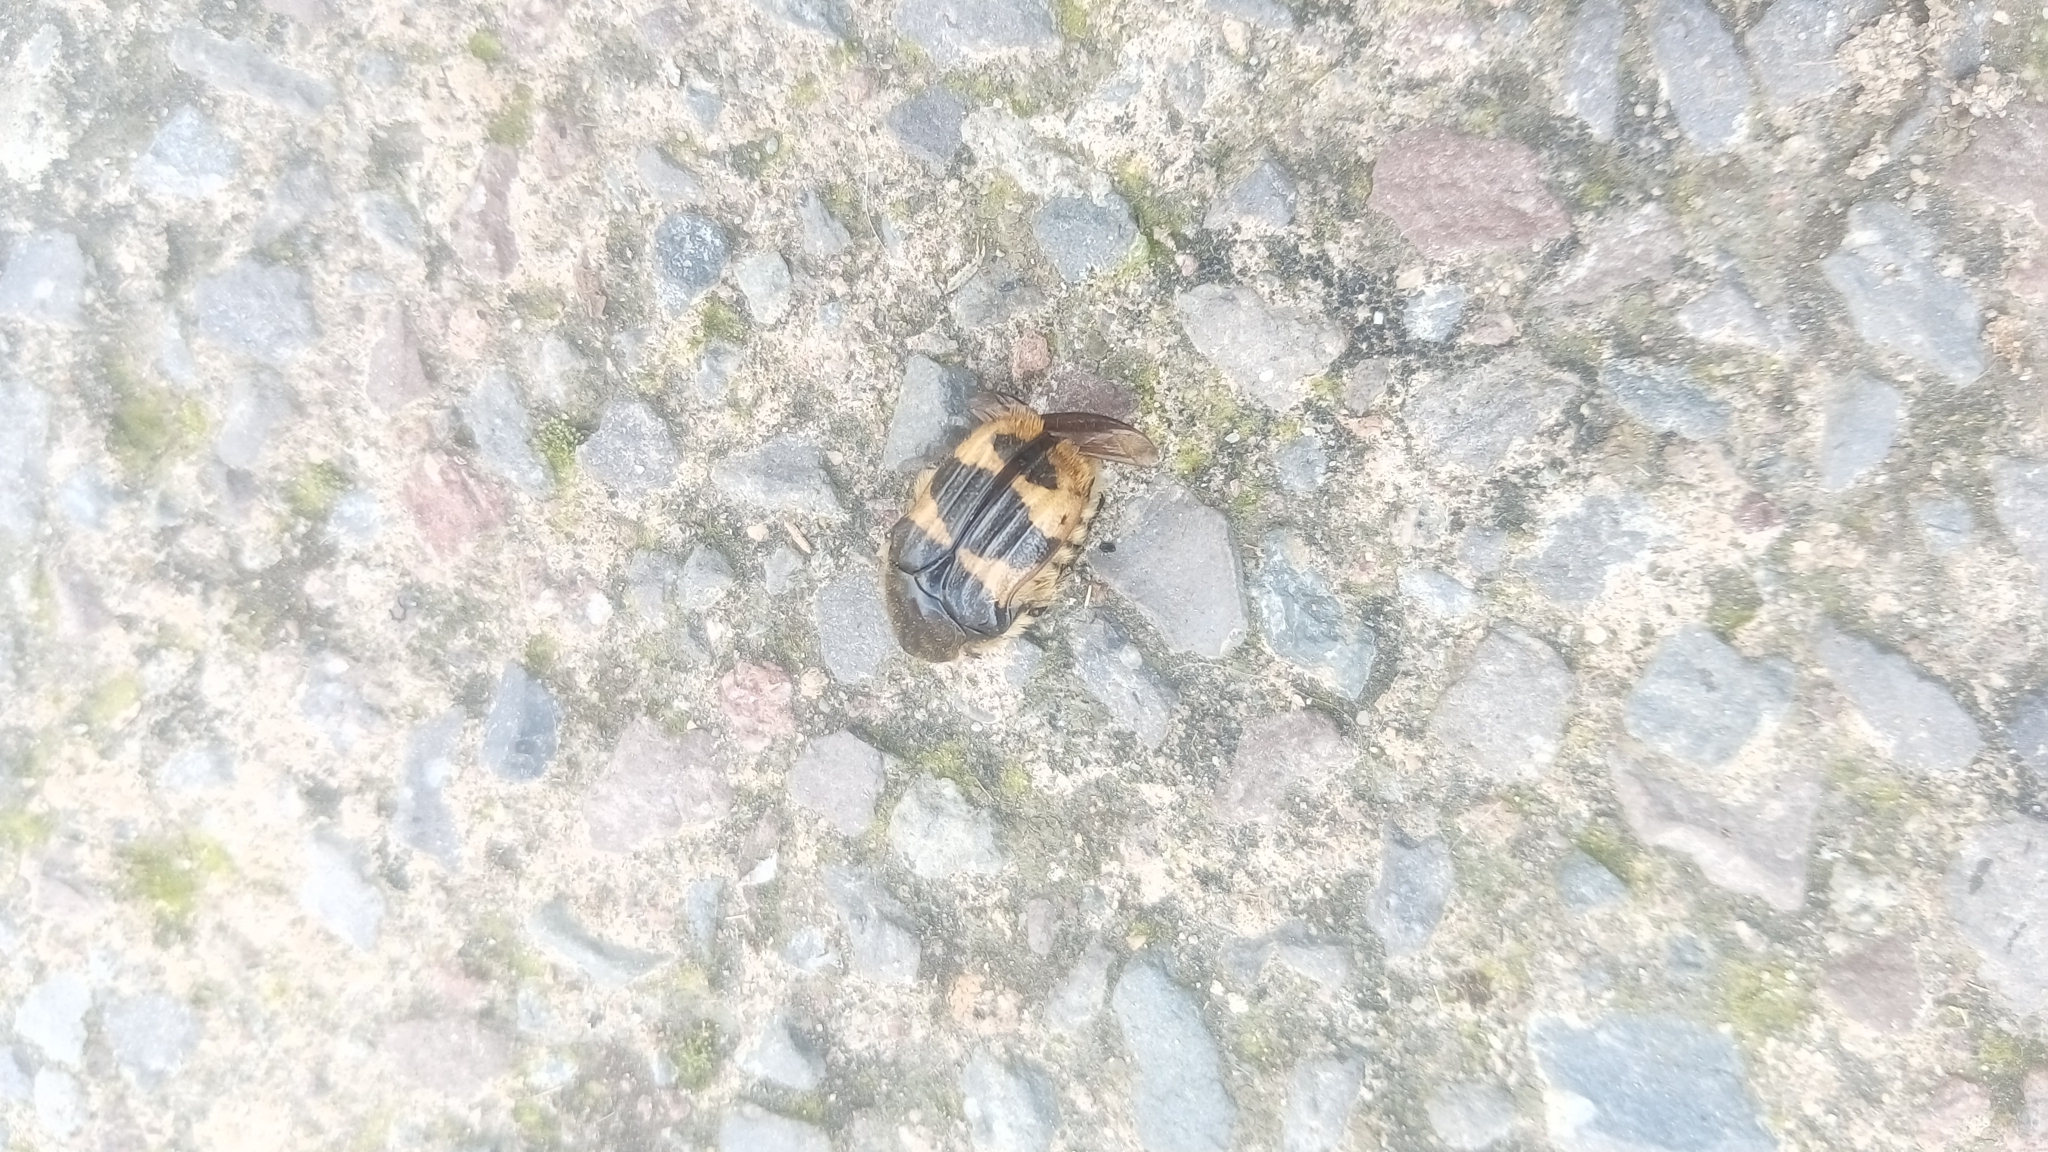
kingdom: Animalia
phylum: Arthropoda
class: Insecta
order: Coleoptera
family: Scarabaeidae
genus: Euphoria
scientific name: Euphoria basalis
